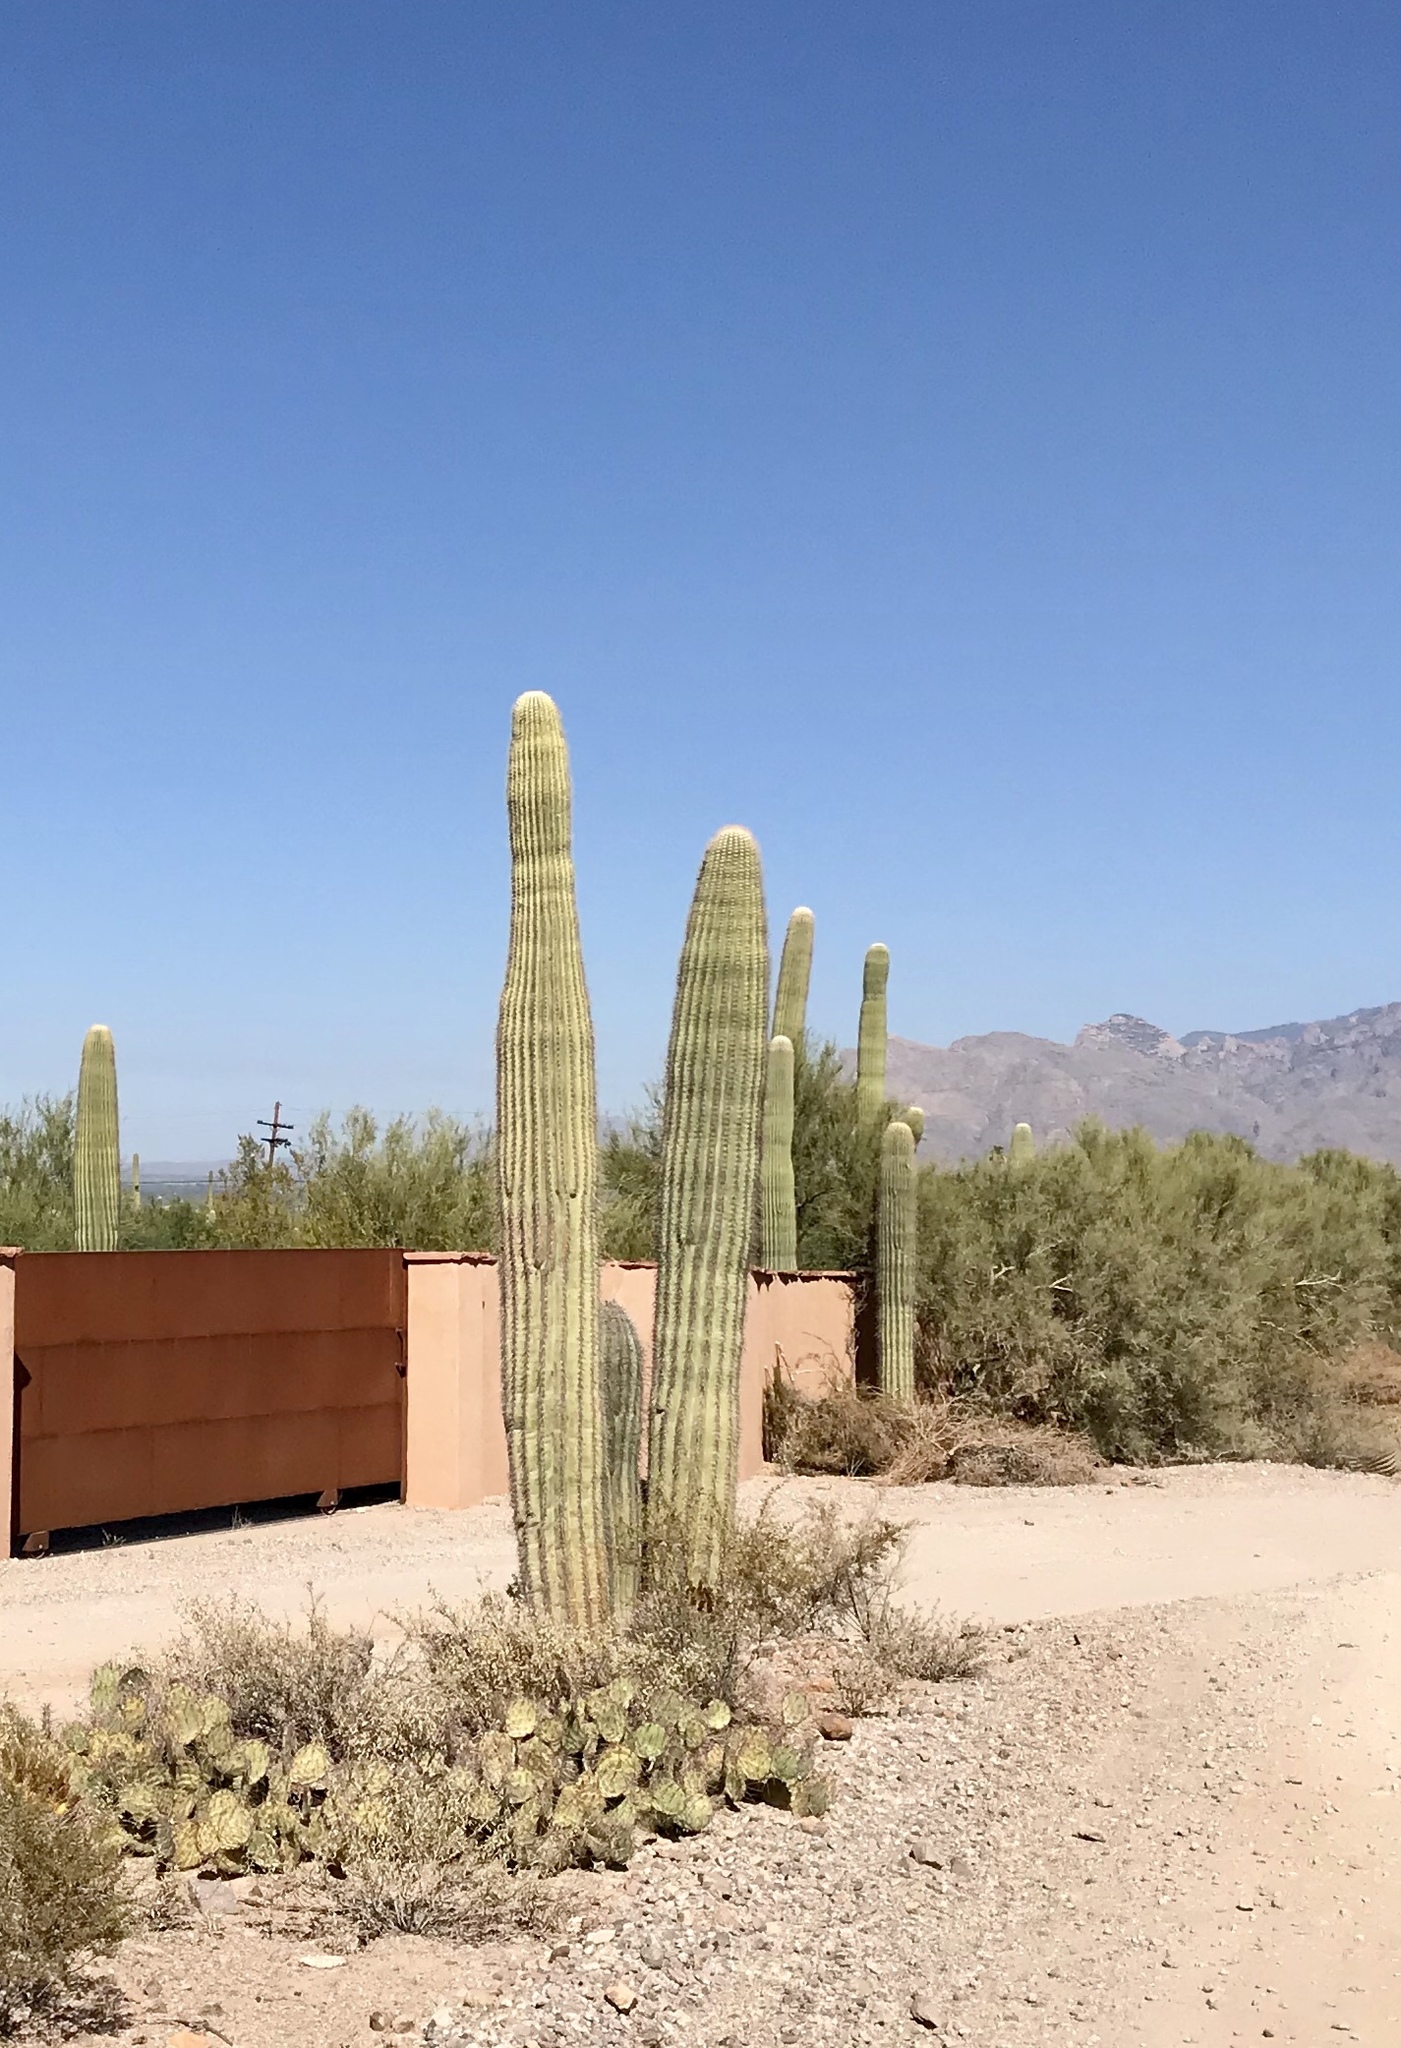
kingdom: Plantae
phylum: Tracheophyta
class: Magnoliopsida
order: Caryophyllales
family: Cactaceae
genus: Carnegiea
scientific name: Carnegiea gigantea
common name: Saguaro
